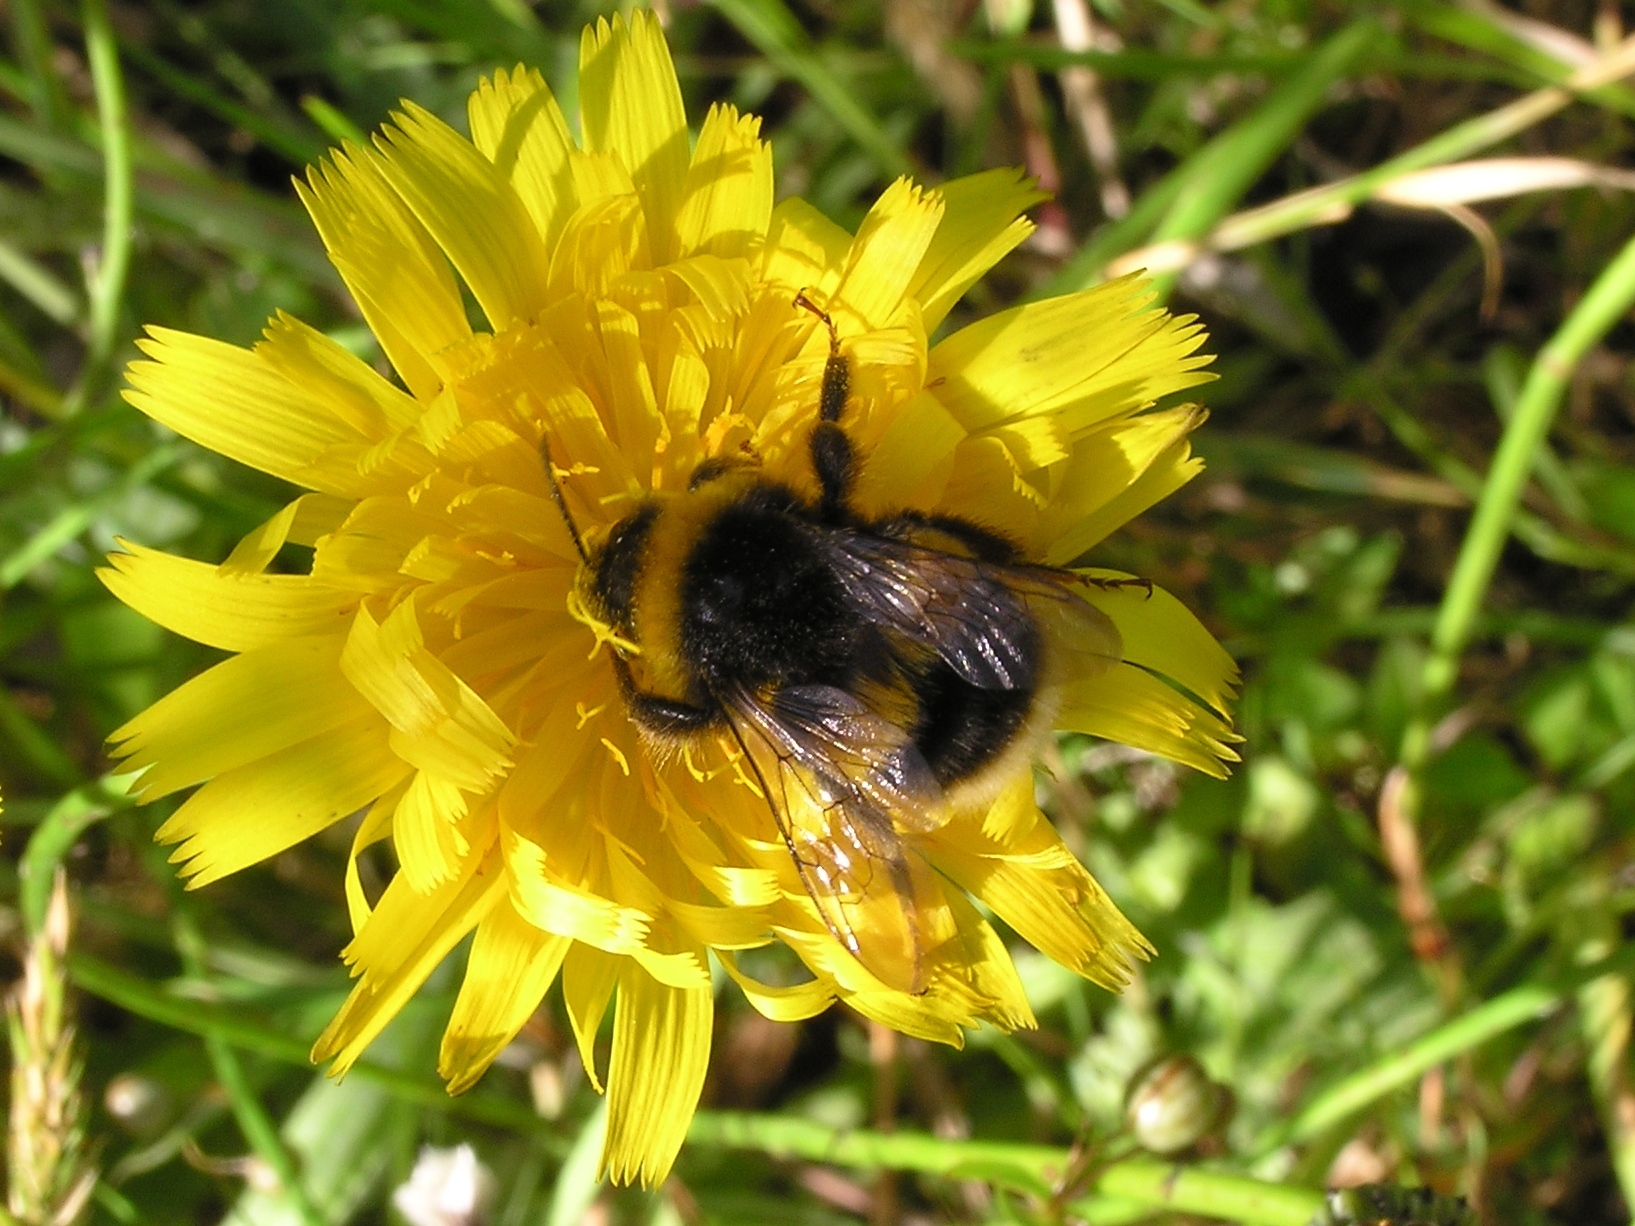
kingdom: Animalia
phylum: Arthropoda
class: Insecta
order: Hymenoptera
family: Apidae
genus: Bombus
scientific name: Bombus terrestris
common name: Buff-tailed bumblebee
